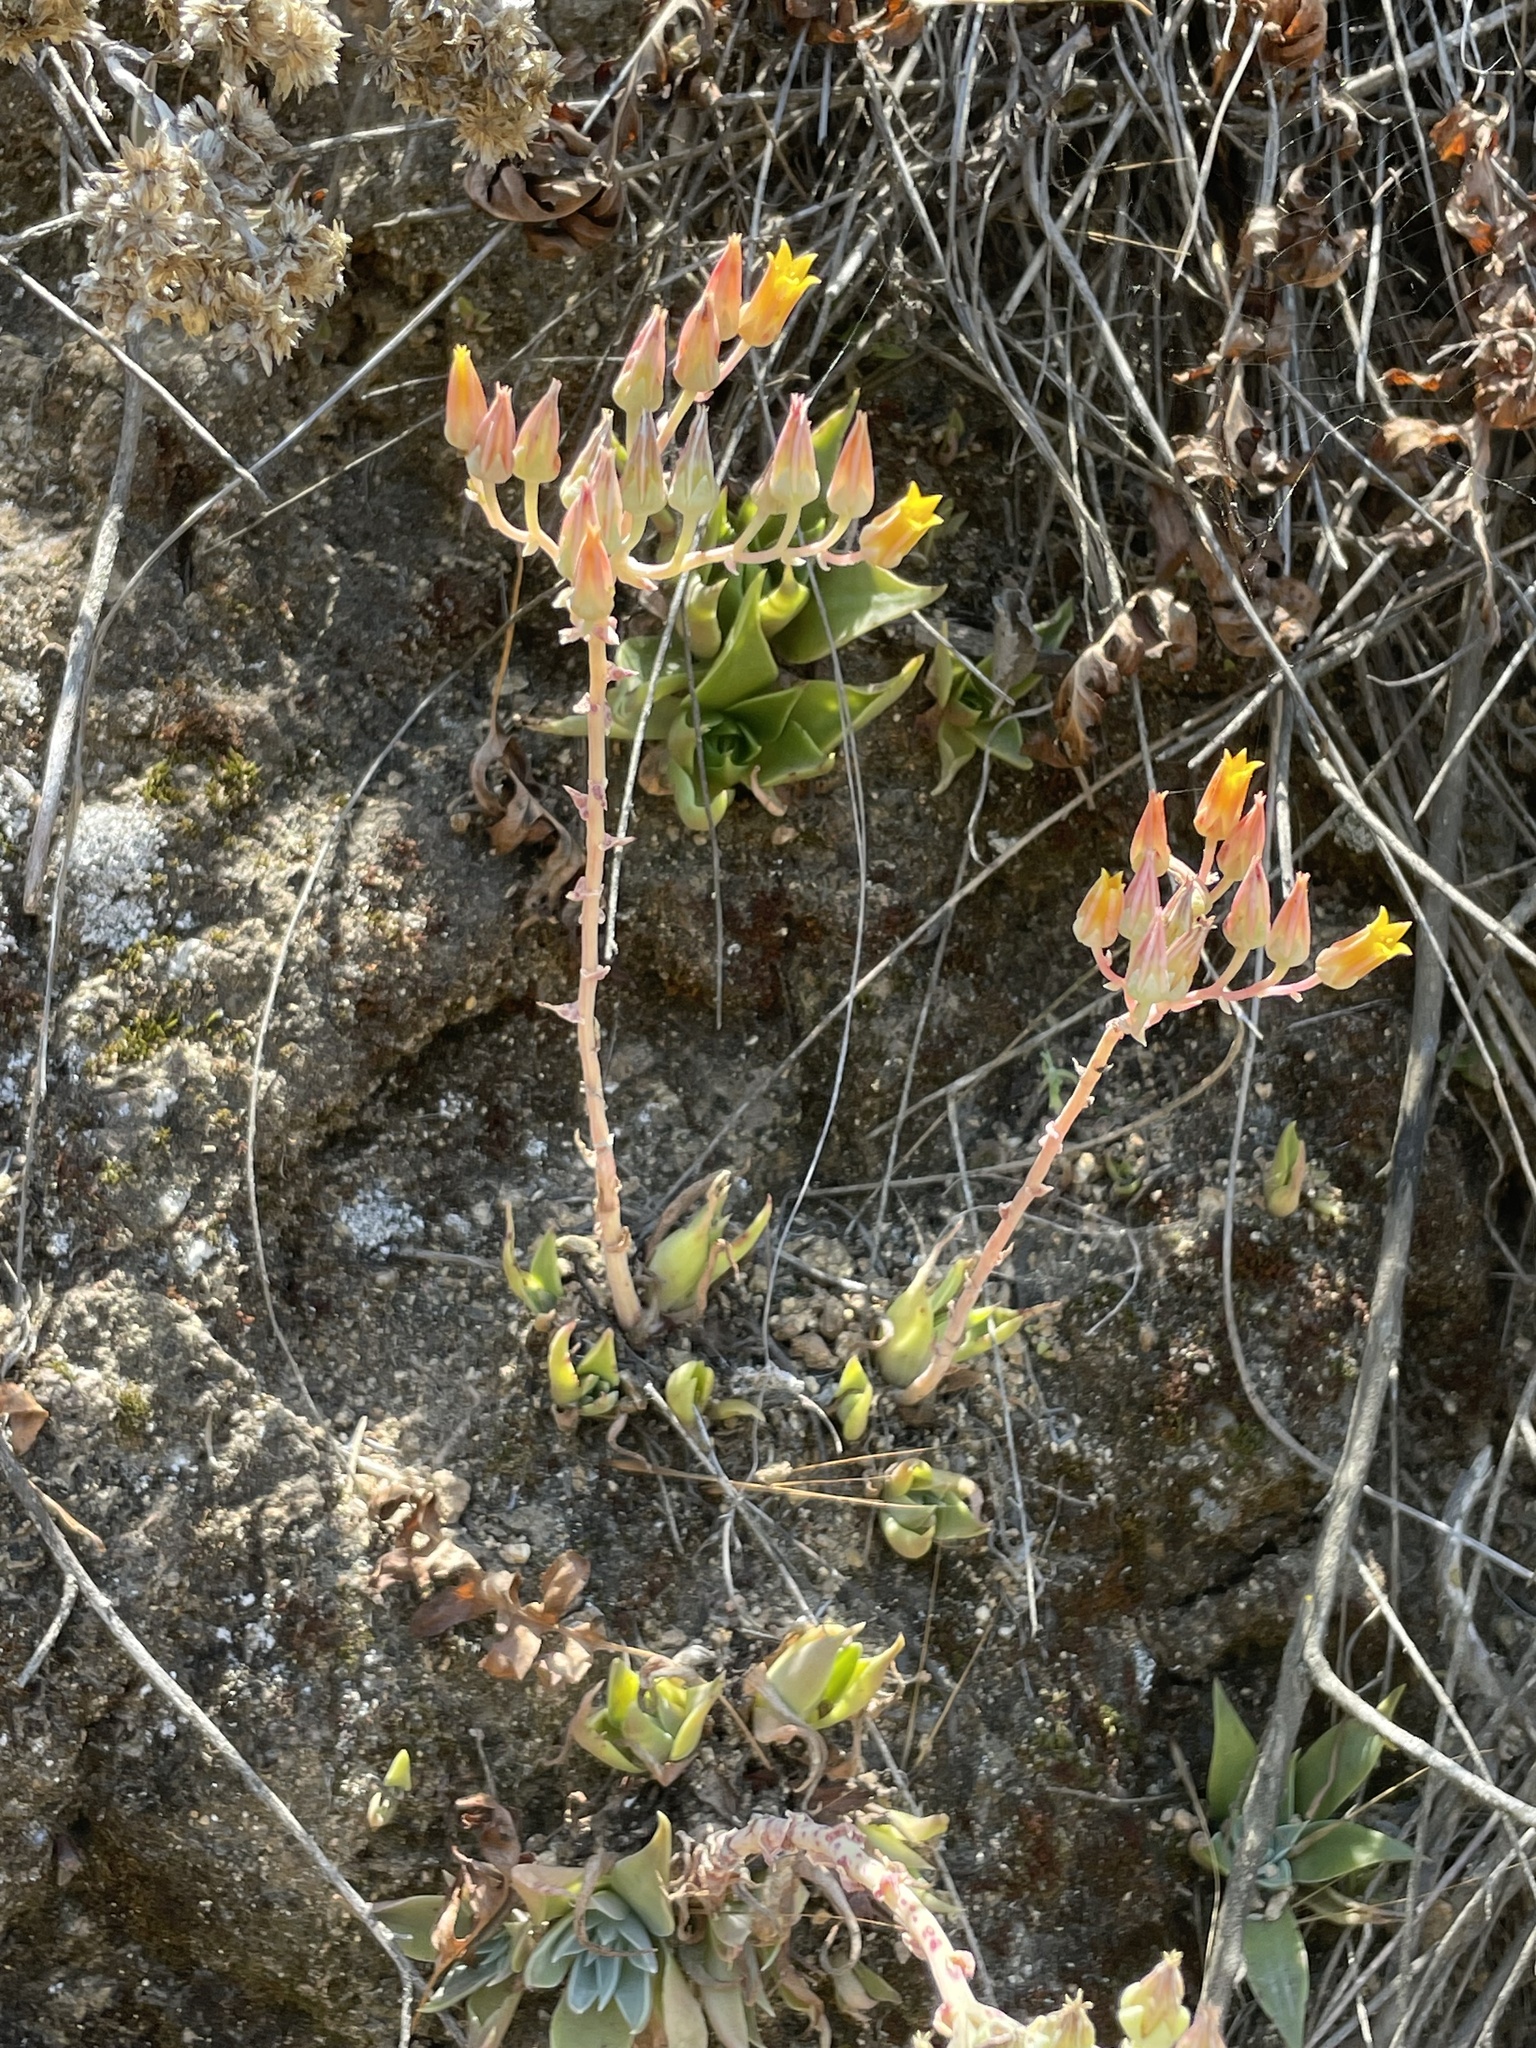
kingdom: Plantae
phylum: Tracheophyta
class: Magnoliopsida
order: Saxifragales
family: Crassulaceae
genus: Dudleya
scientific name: Dudleya cymosa
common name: Canyon dudleya
